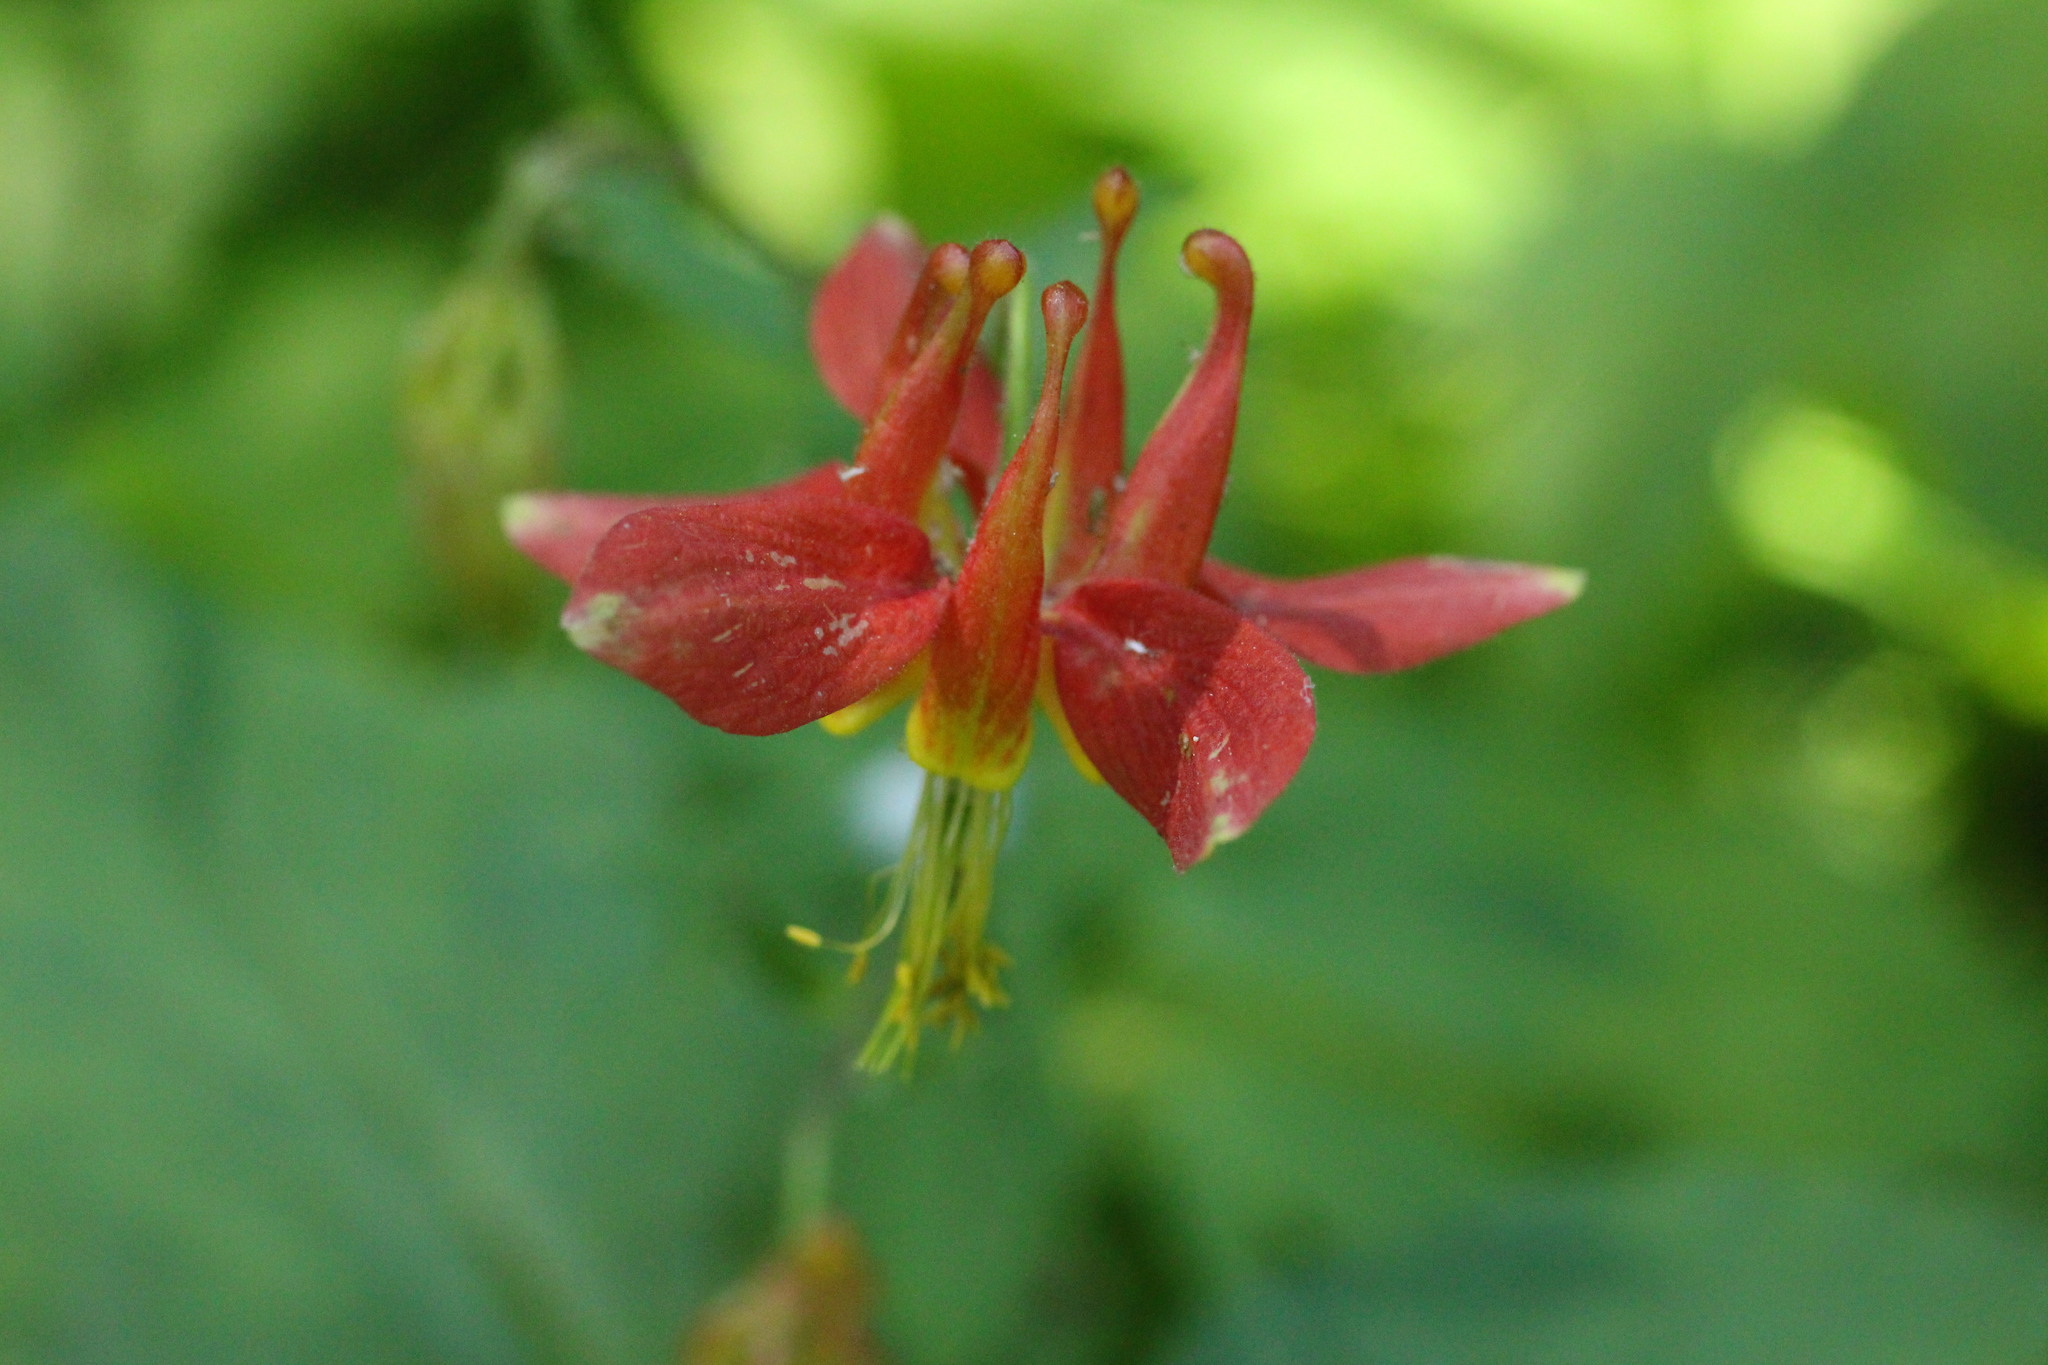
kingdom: Plantae
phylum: Tracheophyta
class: Magnoliopsida
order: Ranunculales
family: Ranunculaceae
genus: Aquilegia
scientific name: Aquilegia formosa
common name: Sitka columbine
